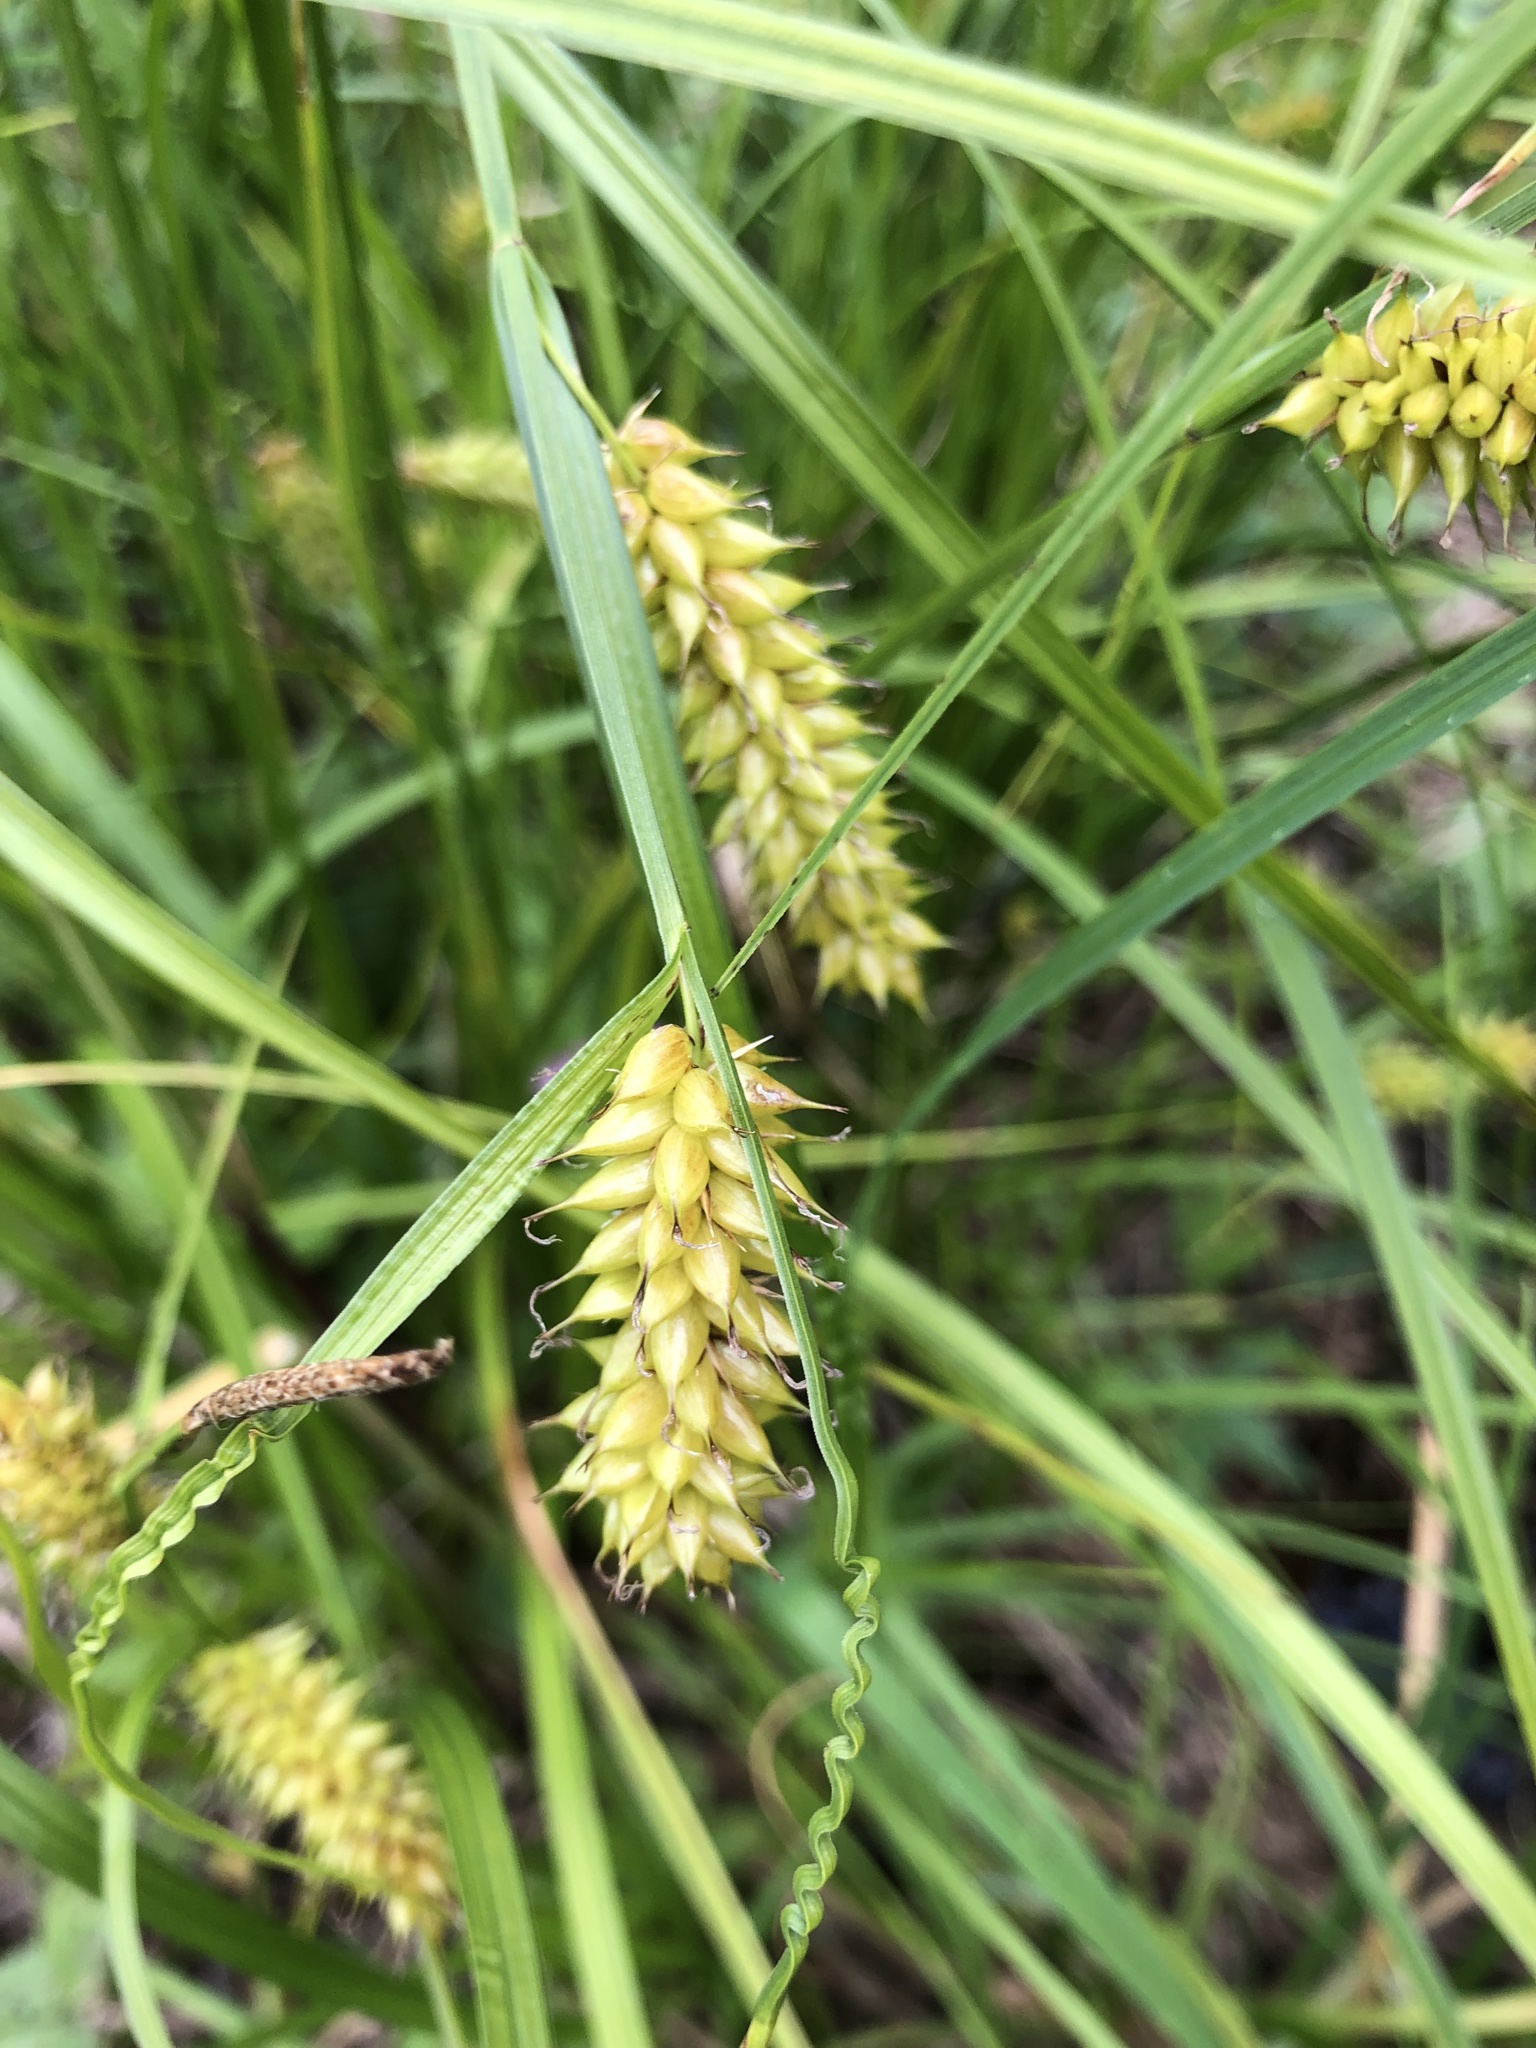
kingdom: Plantae
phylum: Tracheophyta
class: Liliopsida
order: Poales
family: Cyperaceae
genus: Carex
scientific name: Carex vesicaria
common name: Bladder-sedge
